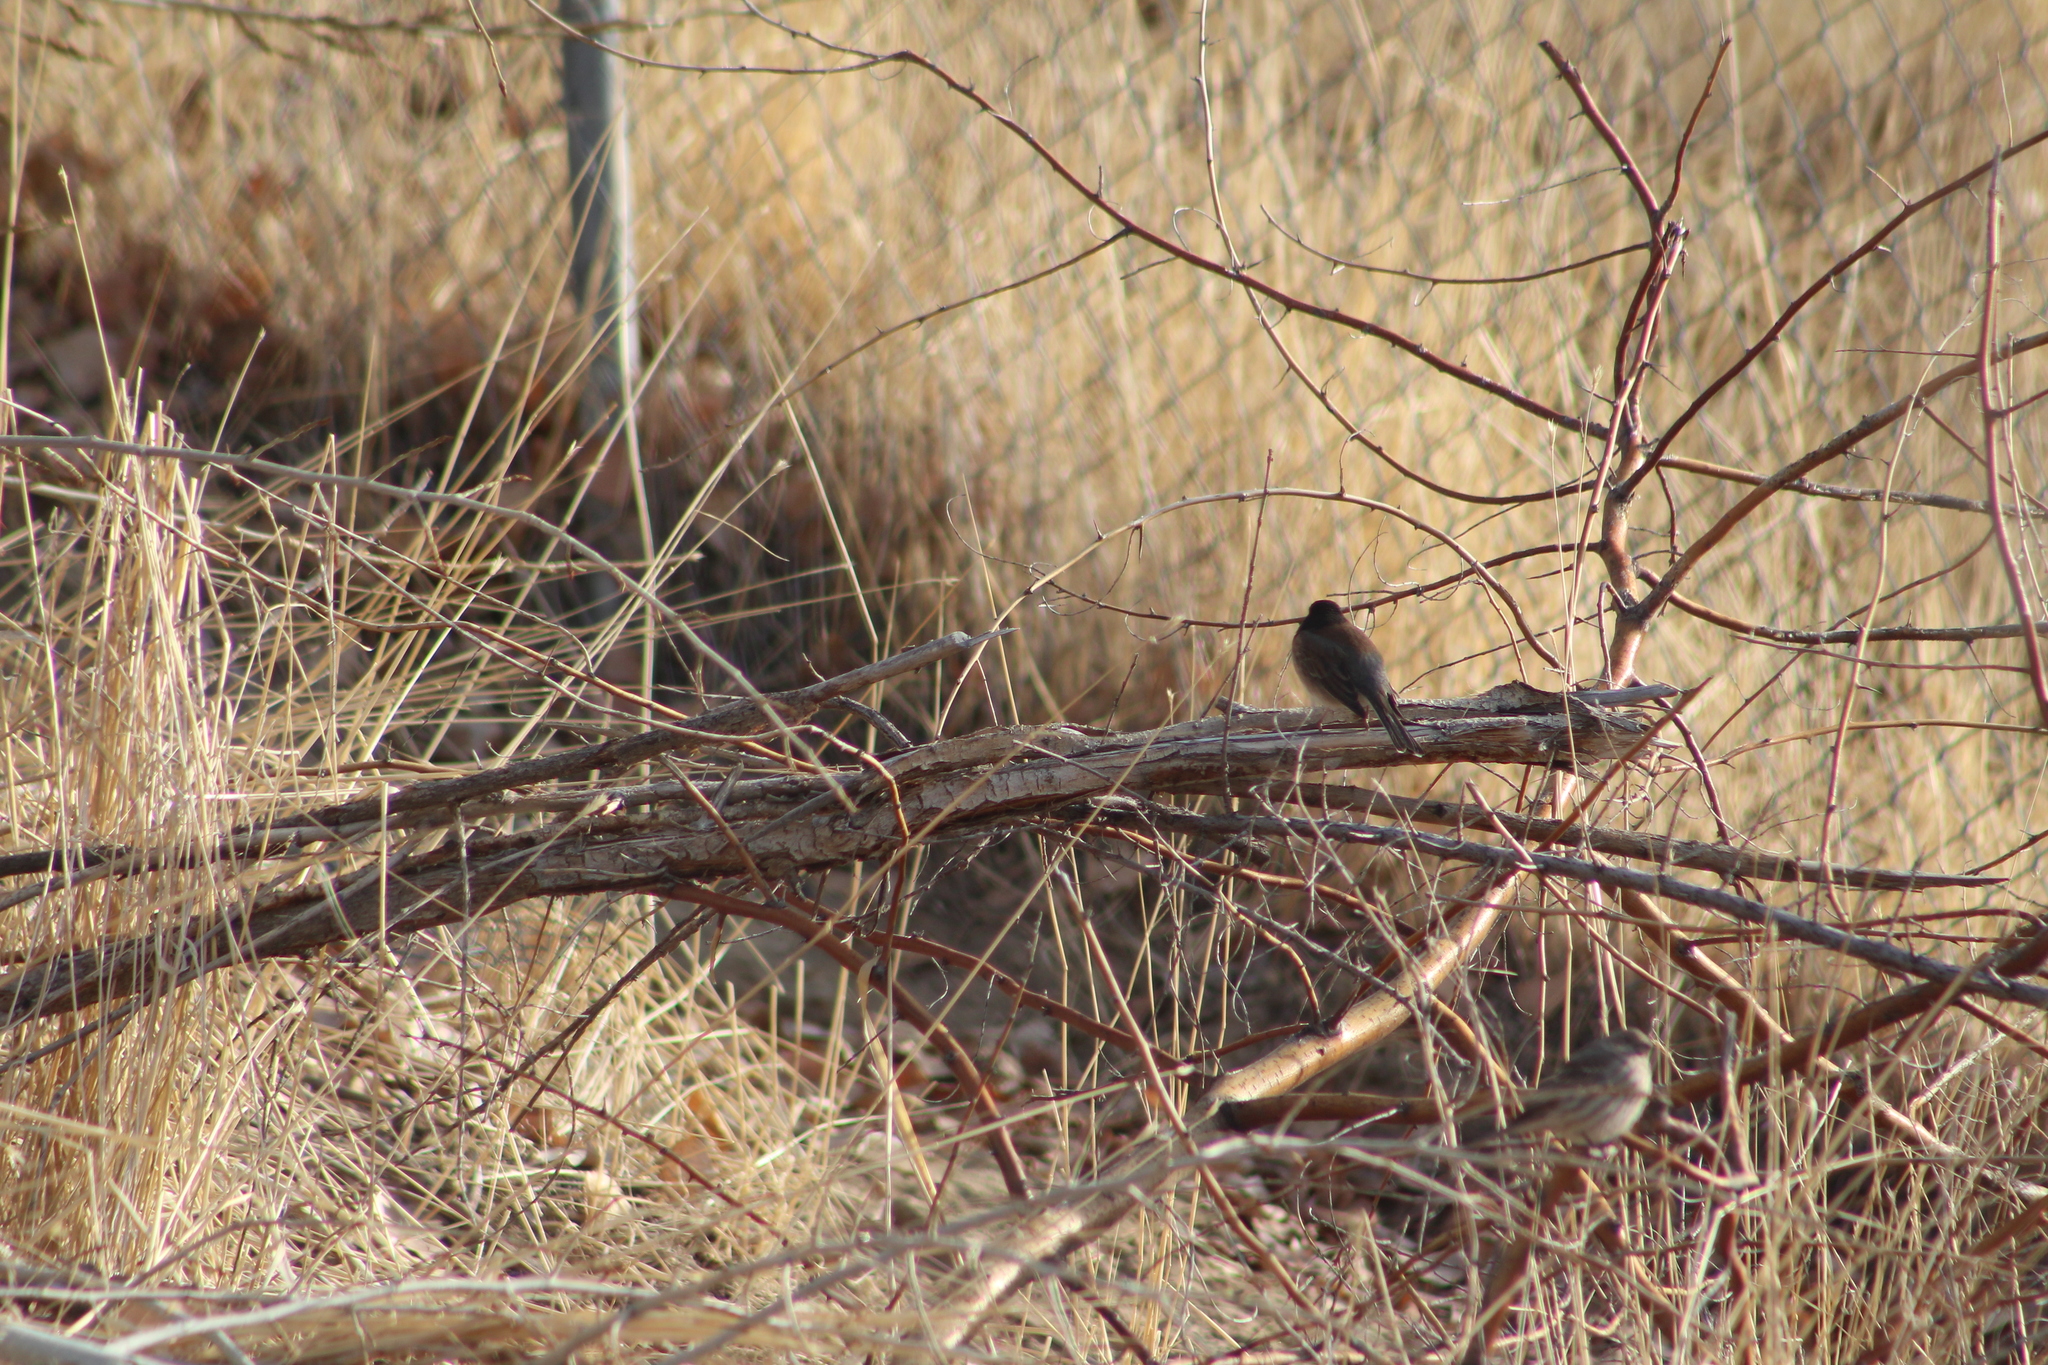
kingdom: Animalia
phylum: Chordata
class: Aves
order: Passeriformes
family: Passerellidae
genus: Junco
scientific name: Junco hyemalis
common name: Dark-eyed junco
